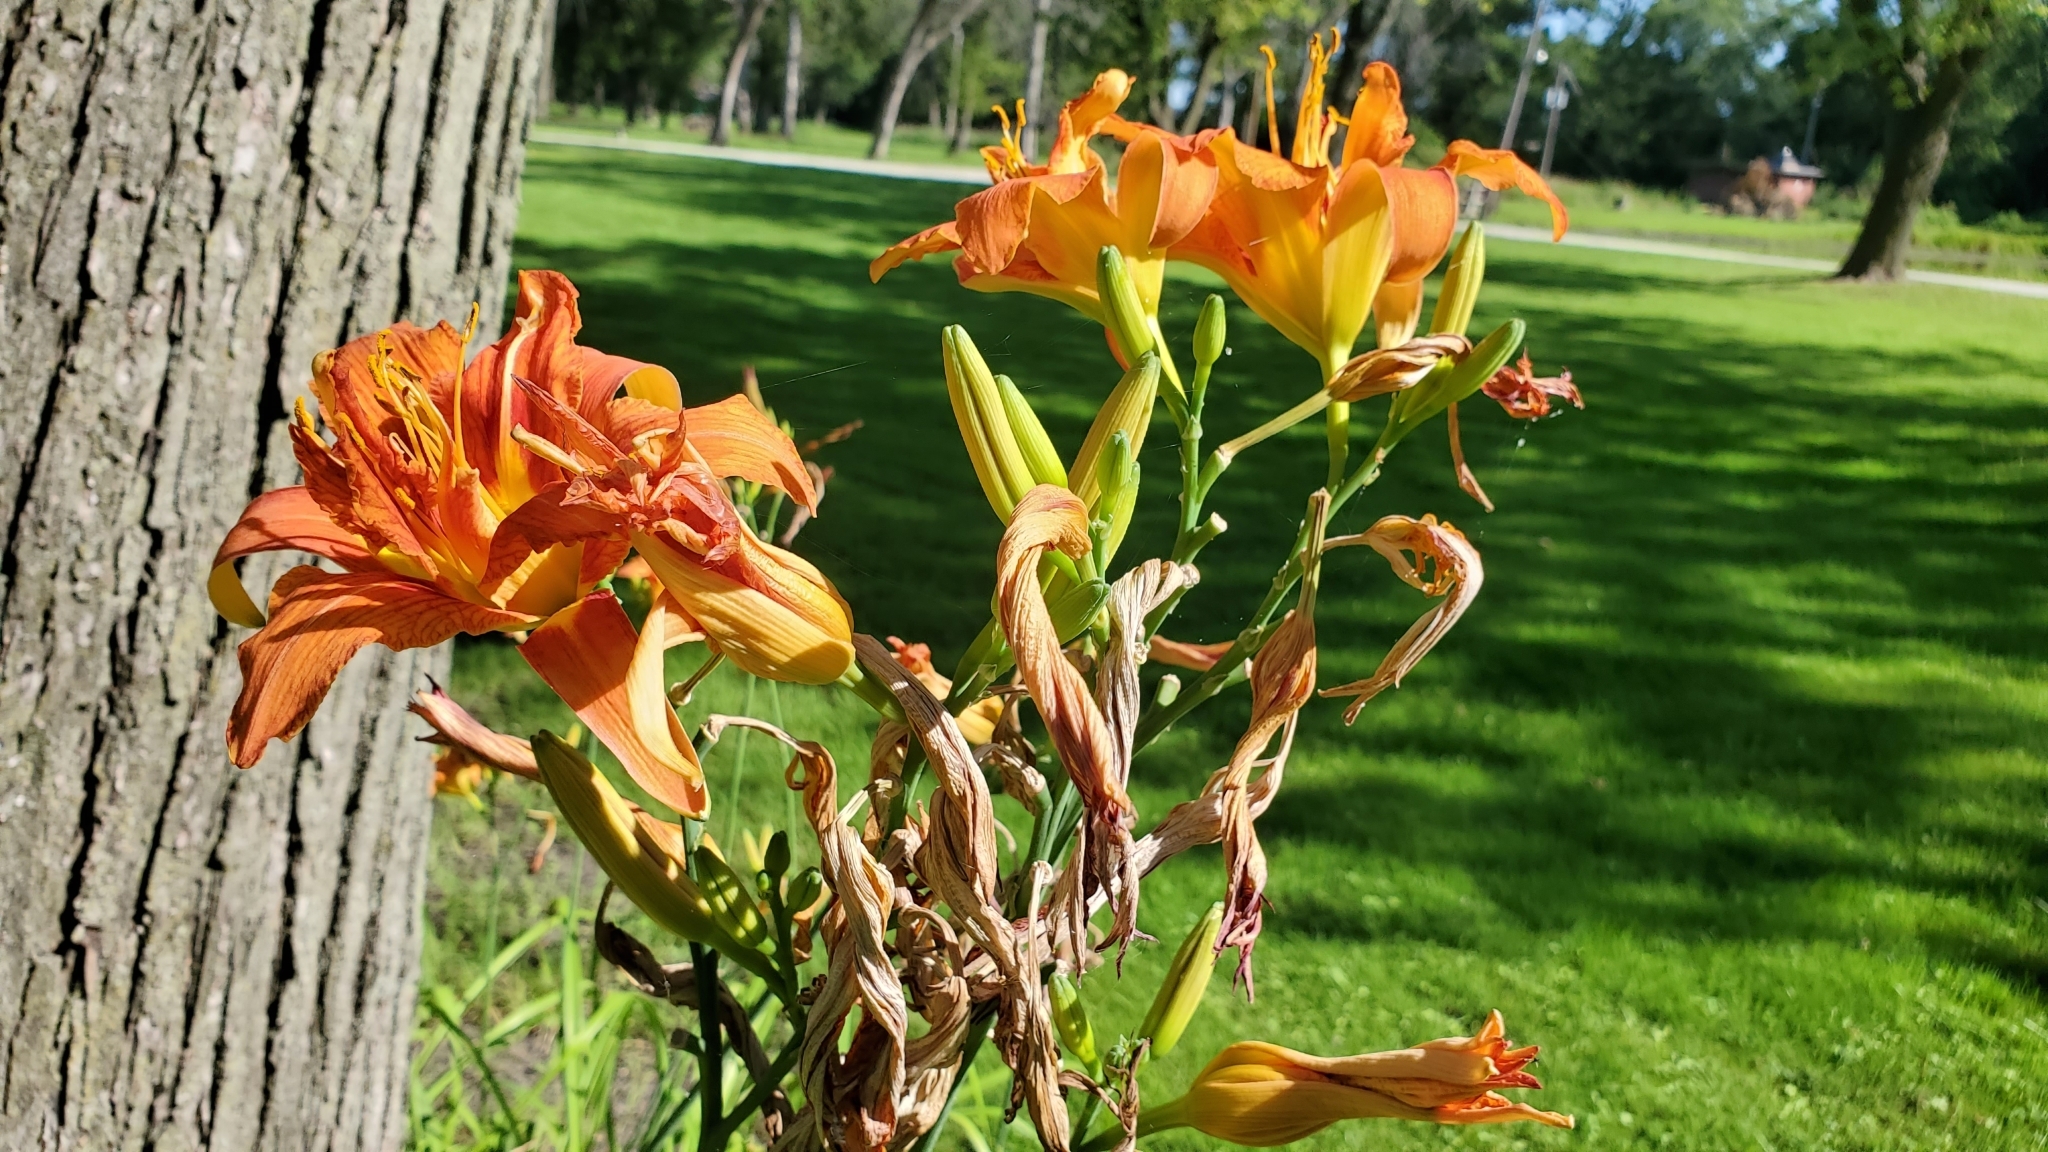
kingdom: Plantae
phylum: Tracheophyta
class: Liliopsida
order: Asparagales
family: Asphodelaceae
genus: Hemerocallis
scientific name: Hemerocallis fulva
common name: Orange day-lily
